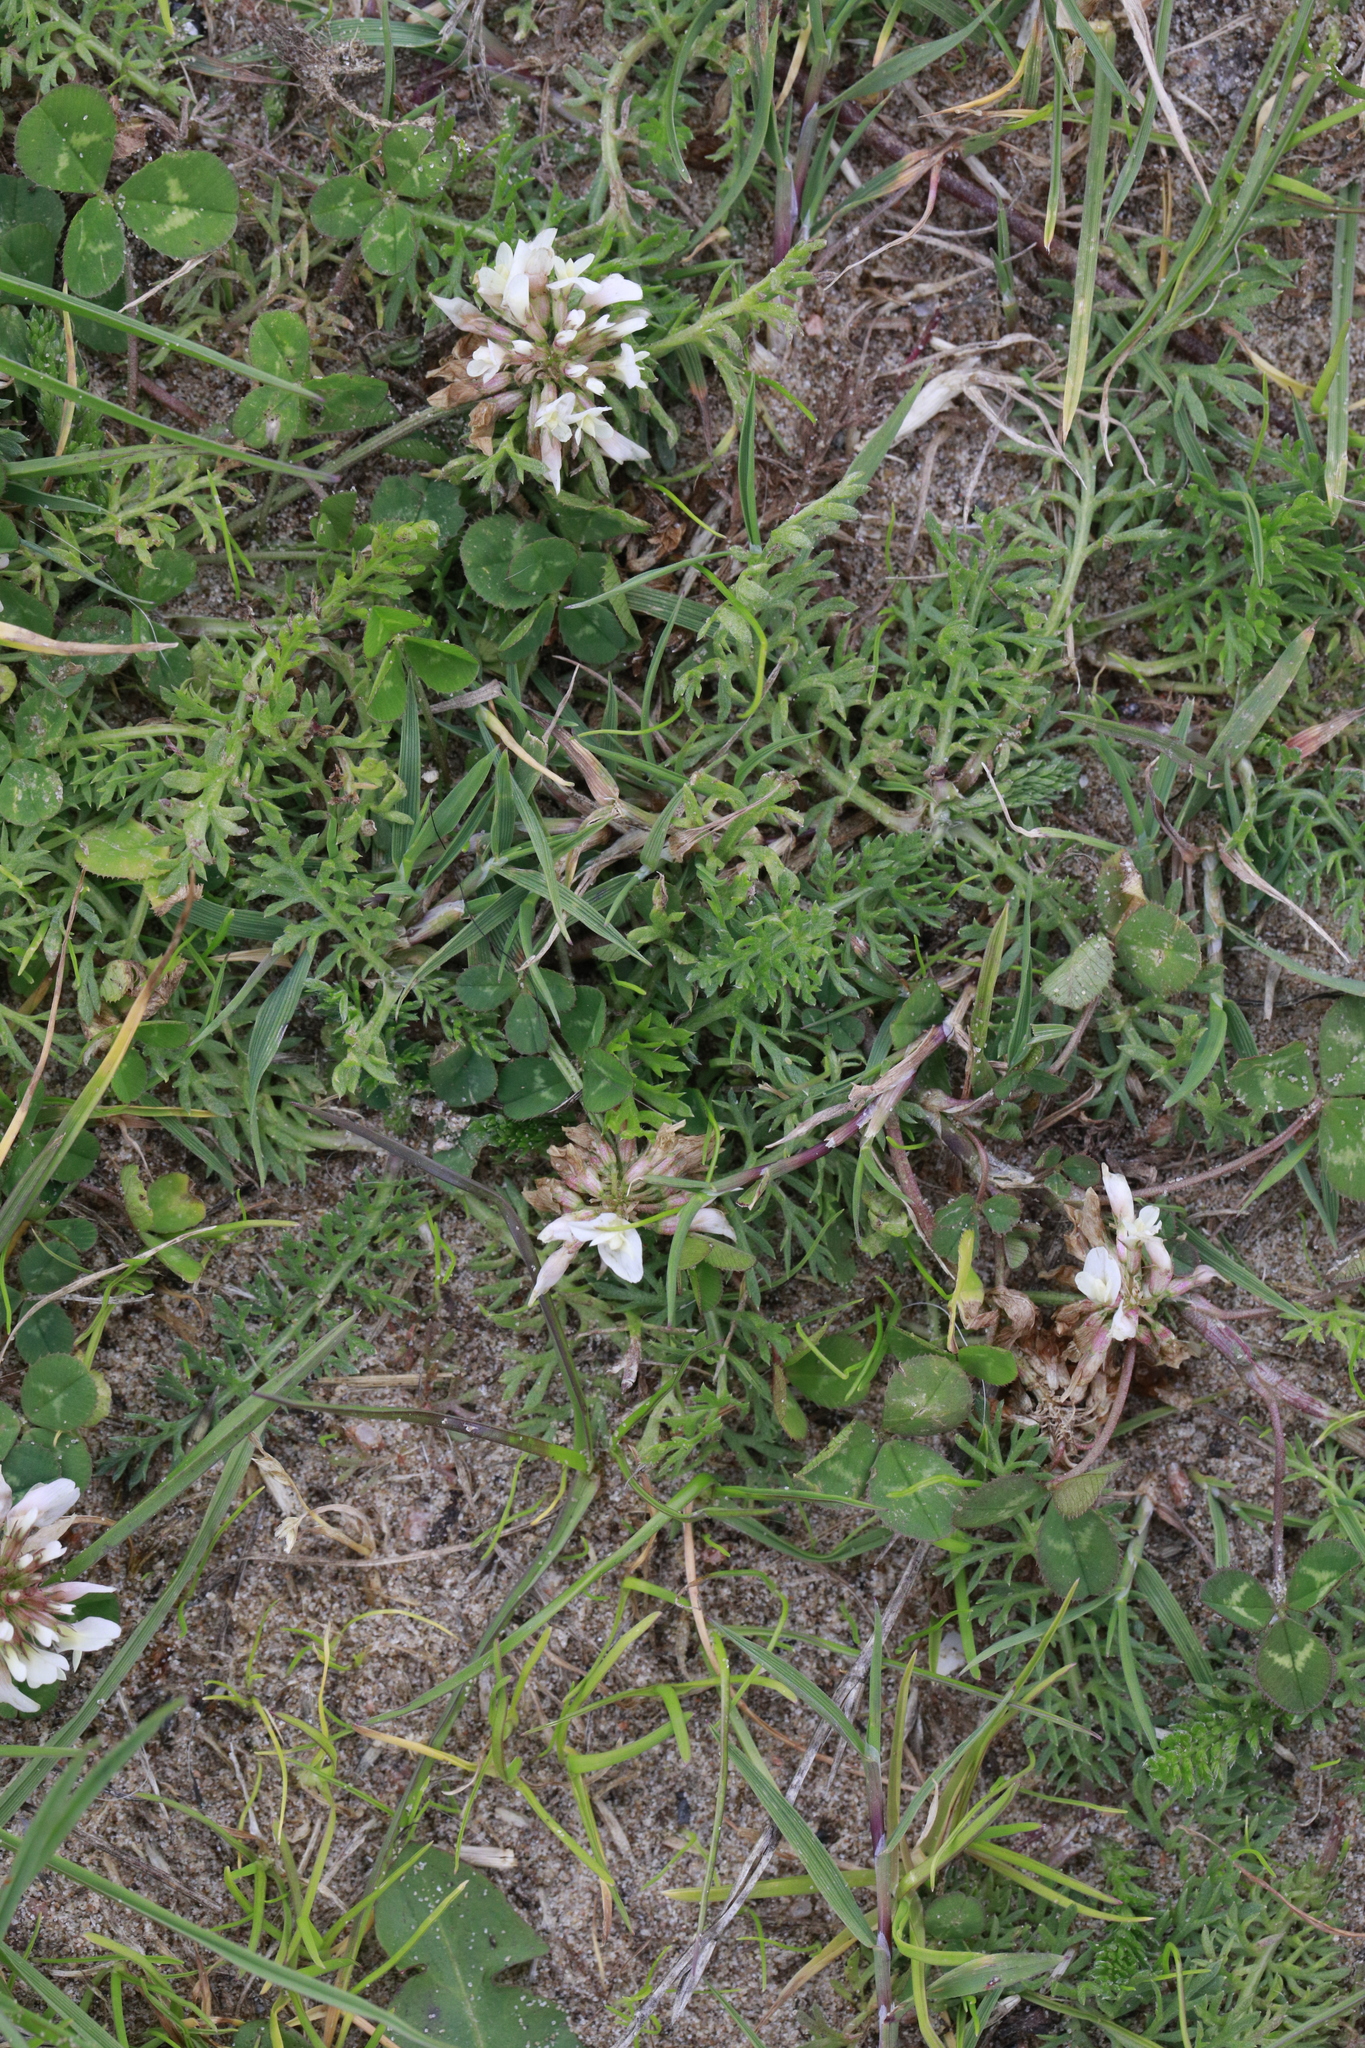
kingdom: Plantae
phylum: Tracheophyta
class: Magnoliopsida
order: Fabales
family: Fabaceae
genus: Trifolium
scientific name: Trifolium repens
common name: White clover
